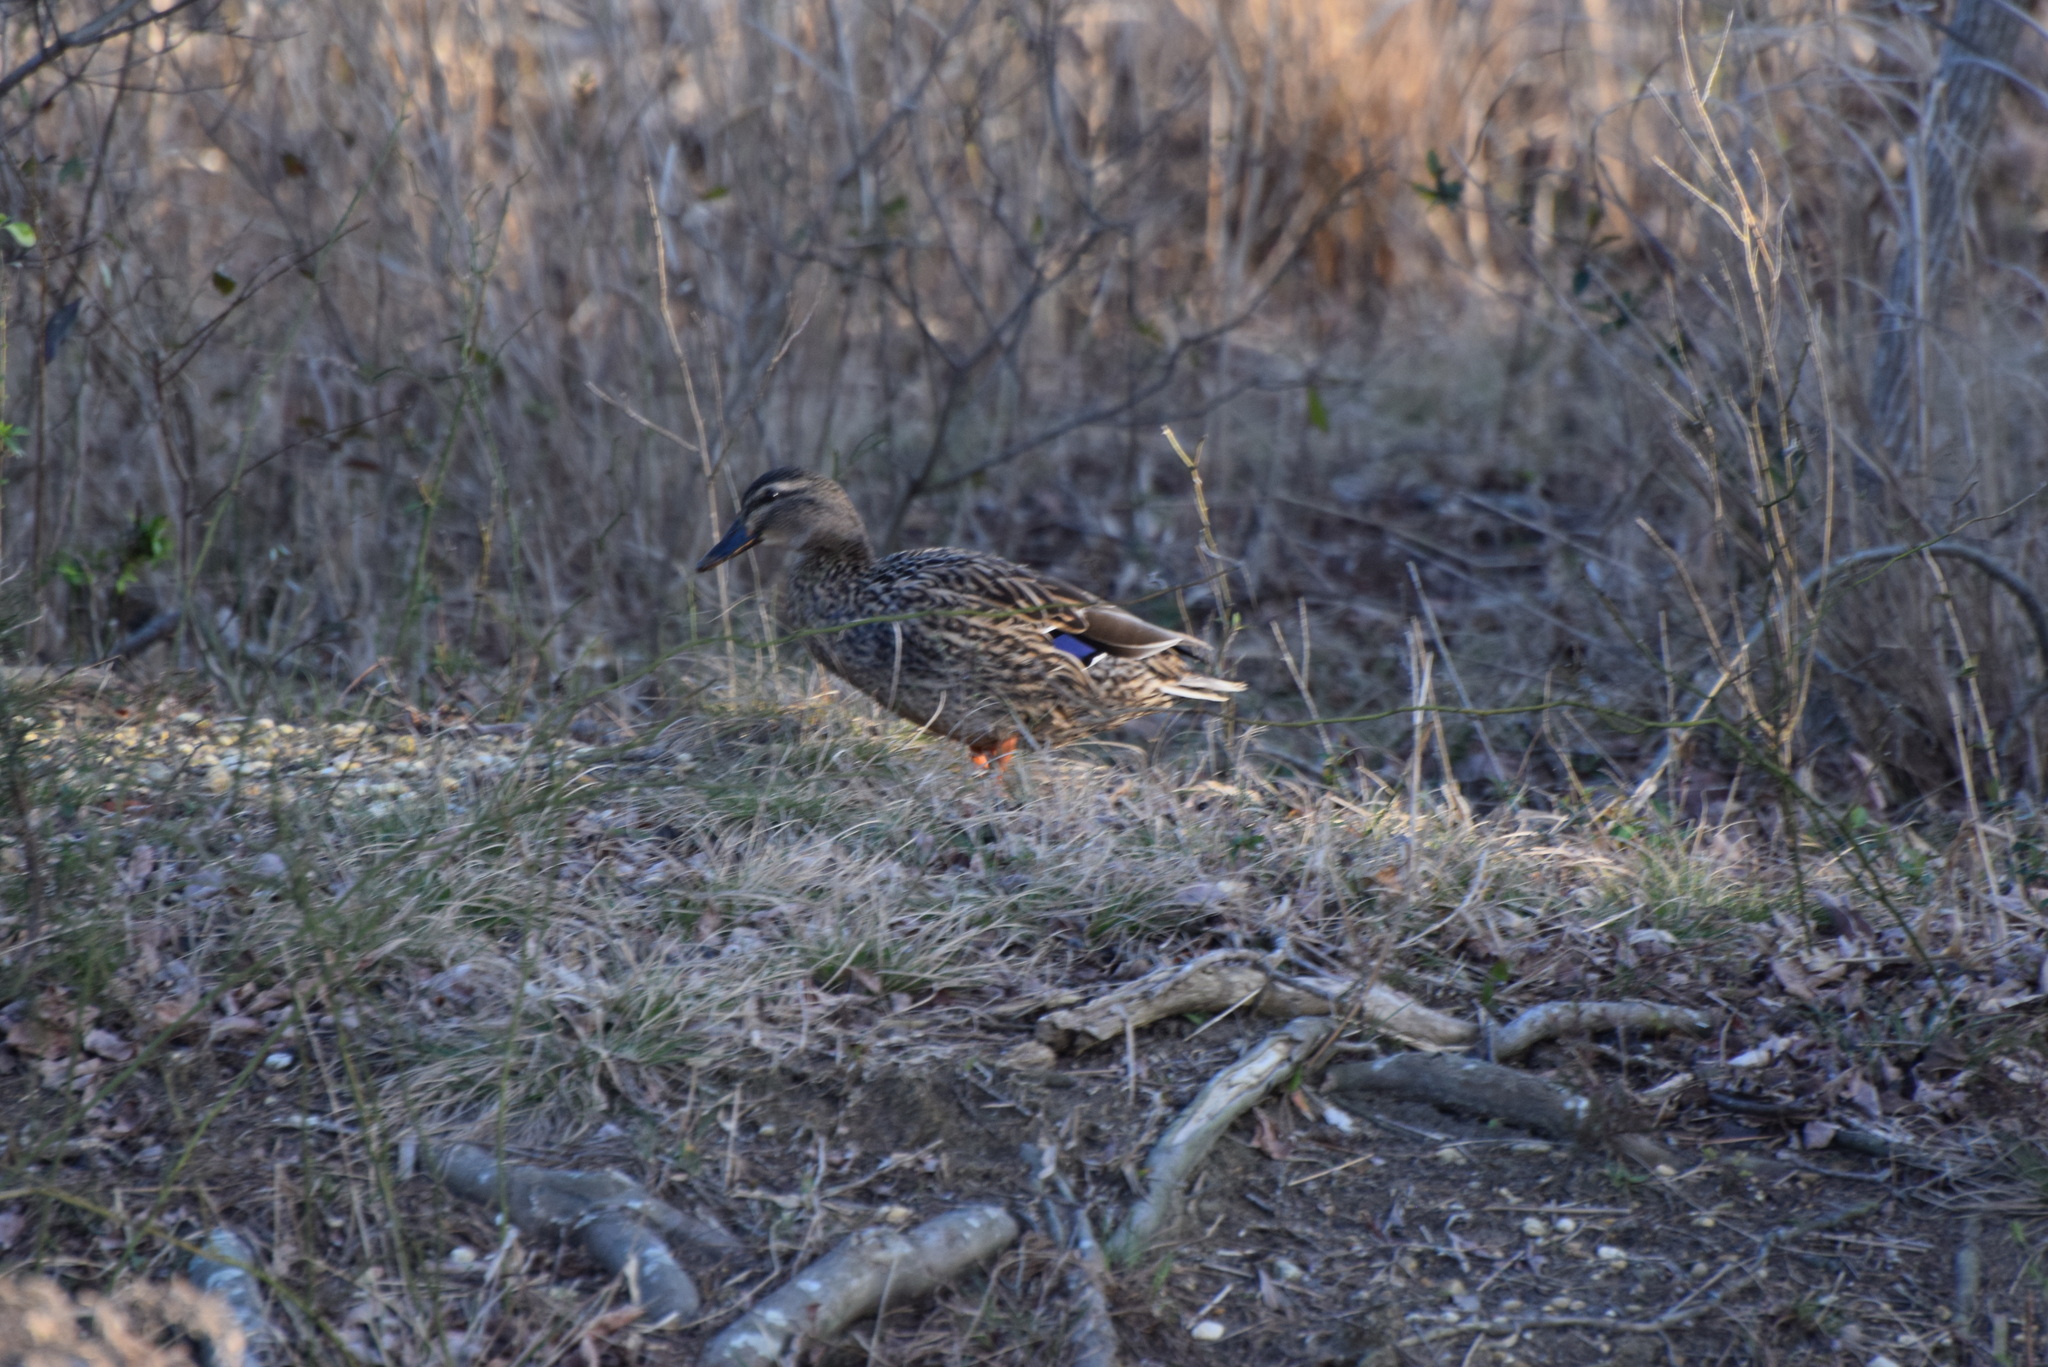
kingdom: Animalia
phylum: Chordata
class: Aves
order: Anseriformes
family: Anatidae
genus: Anas
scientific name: Anas platyrhynchos
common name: Mallard
